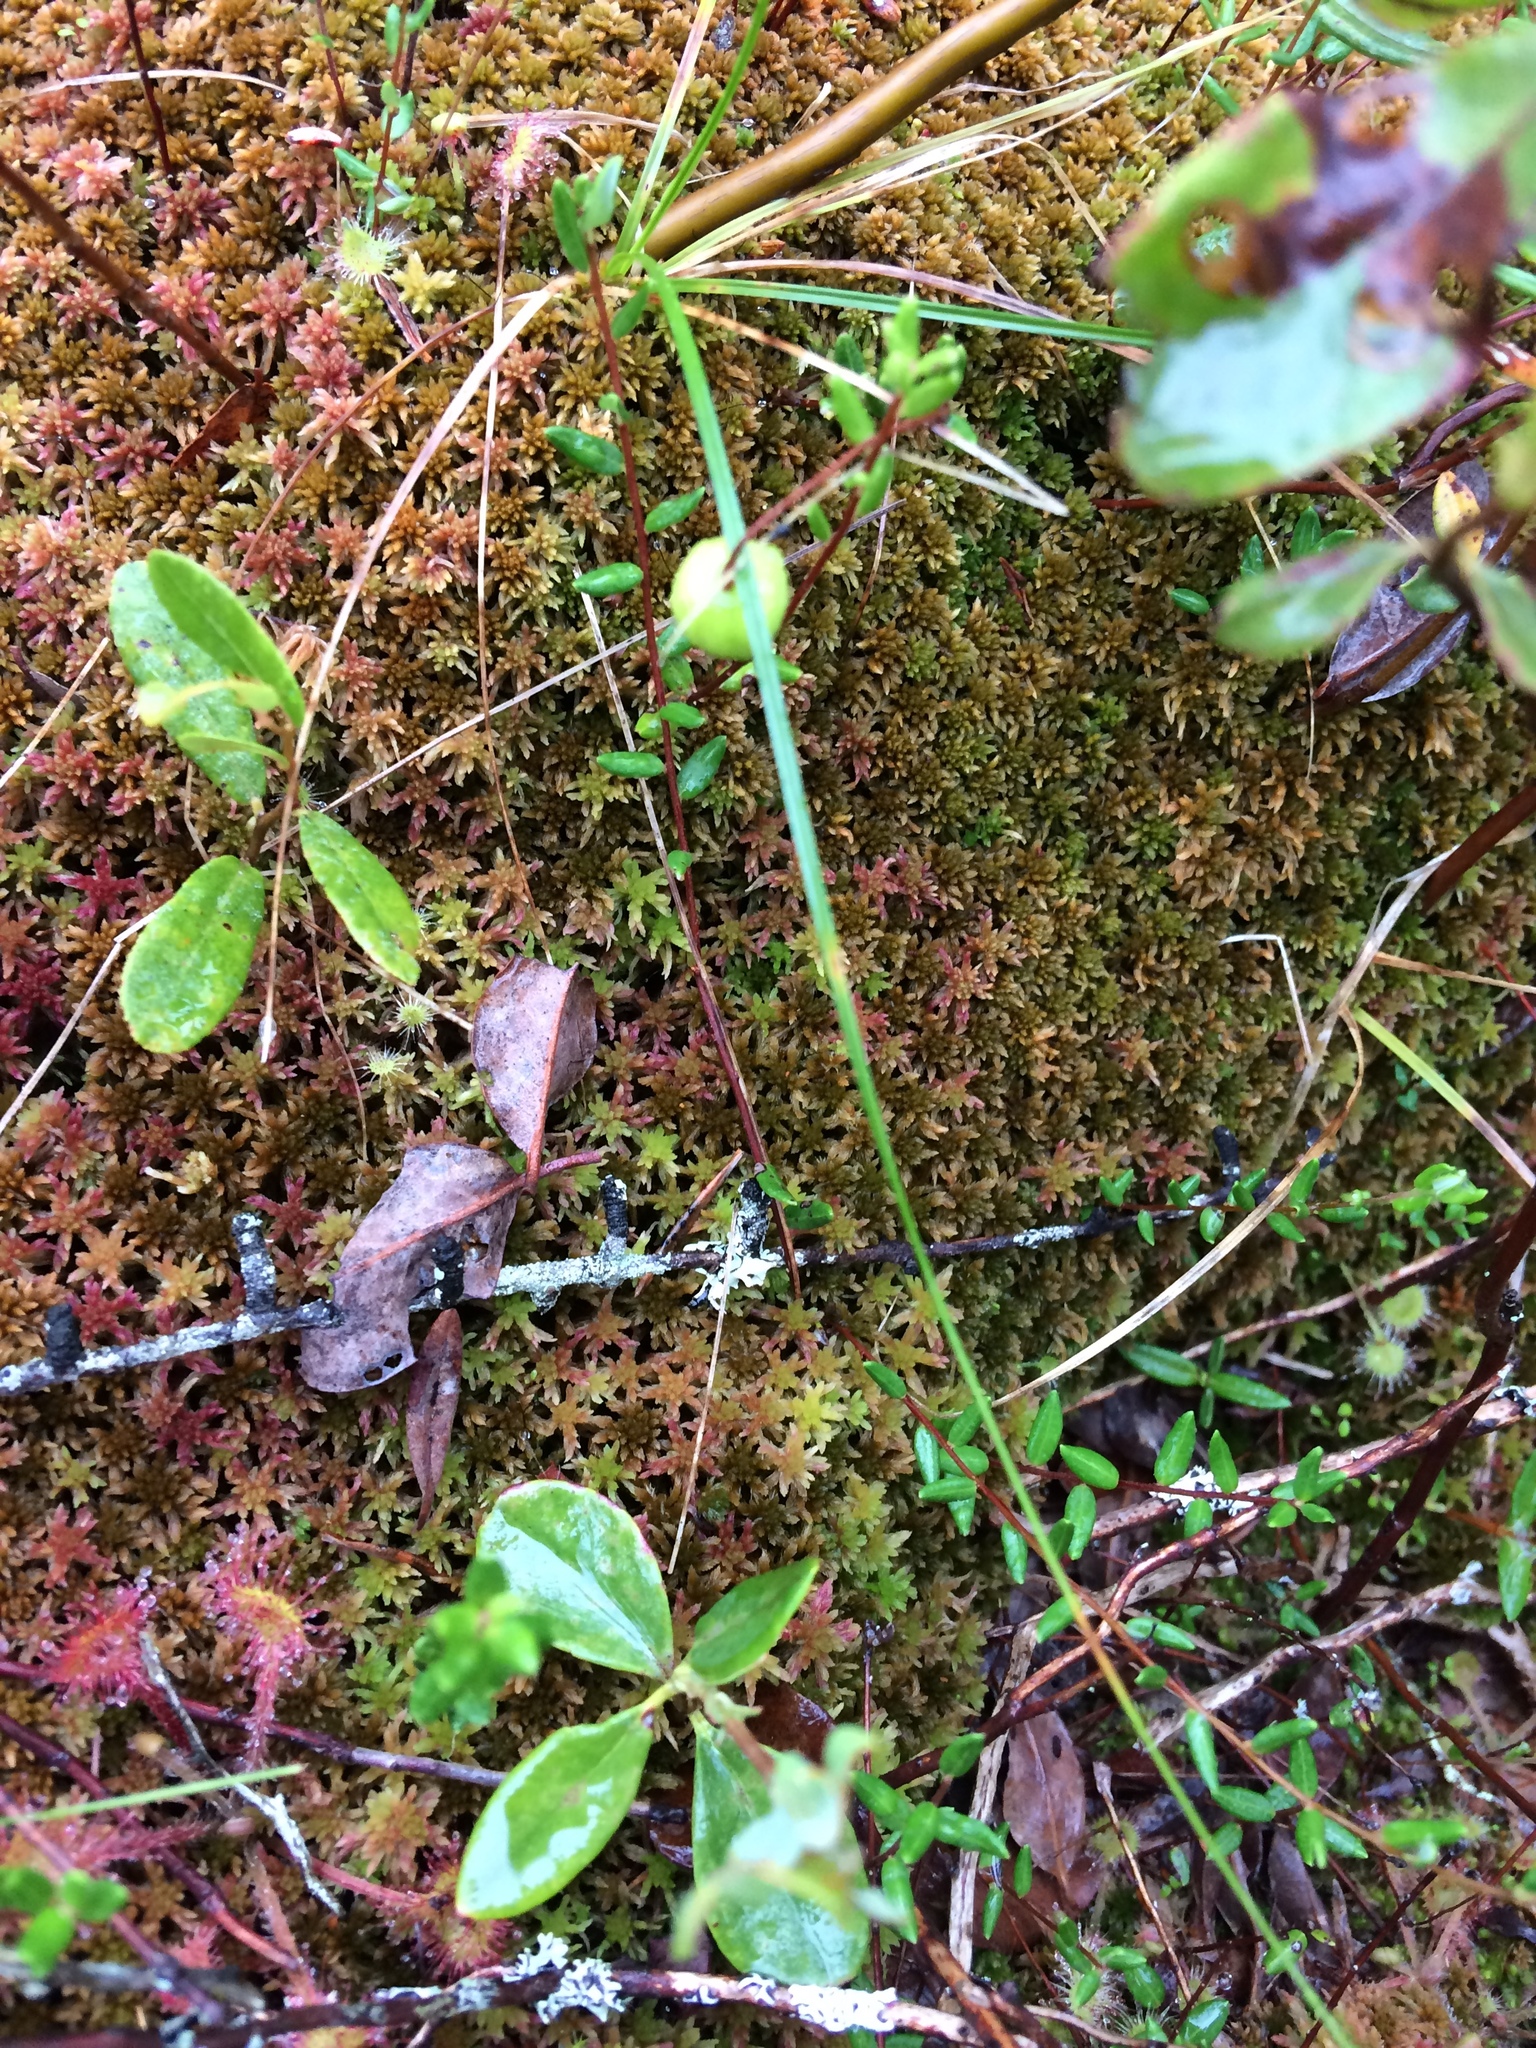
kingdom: Plantae
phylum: Tracheophyta
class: Magnoliopsida
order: Ericales
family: Ericaceae
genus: Vaccinium
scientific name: Vaccinium oxycoccos
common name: Cranberry
